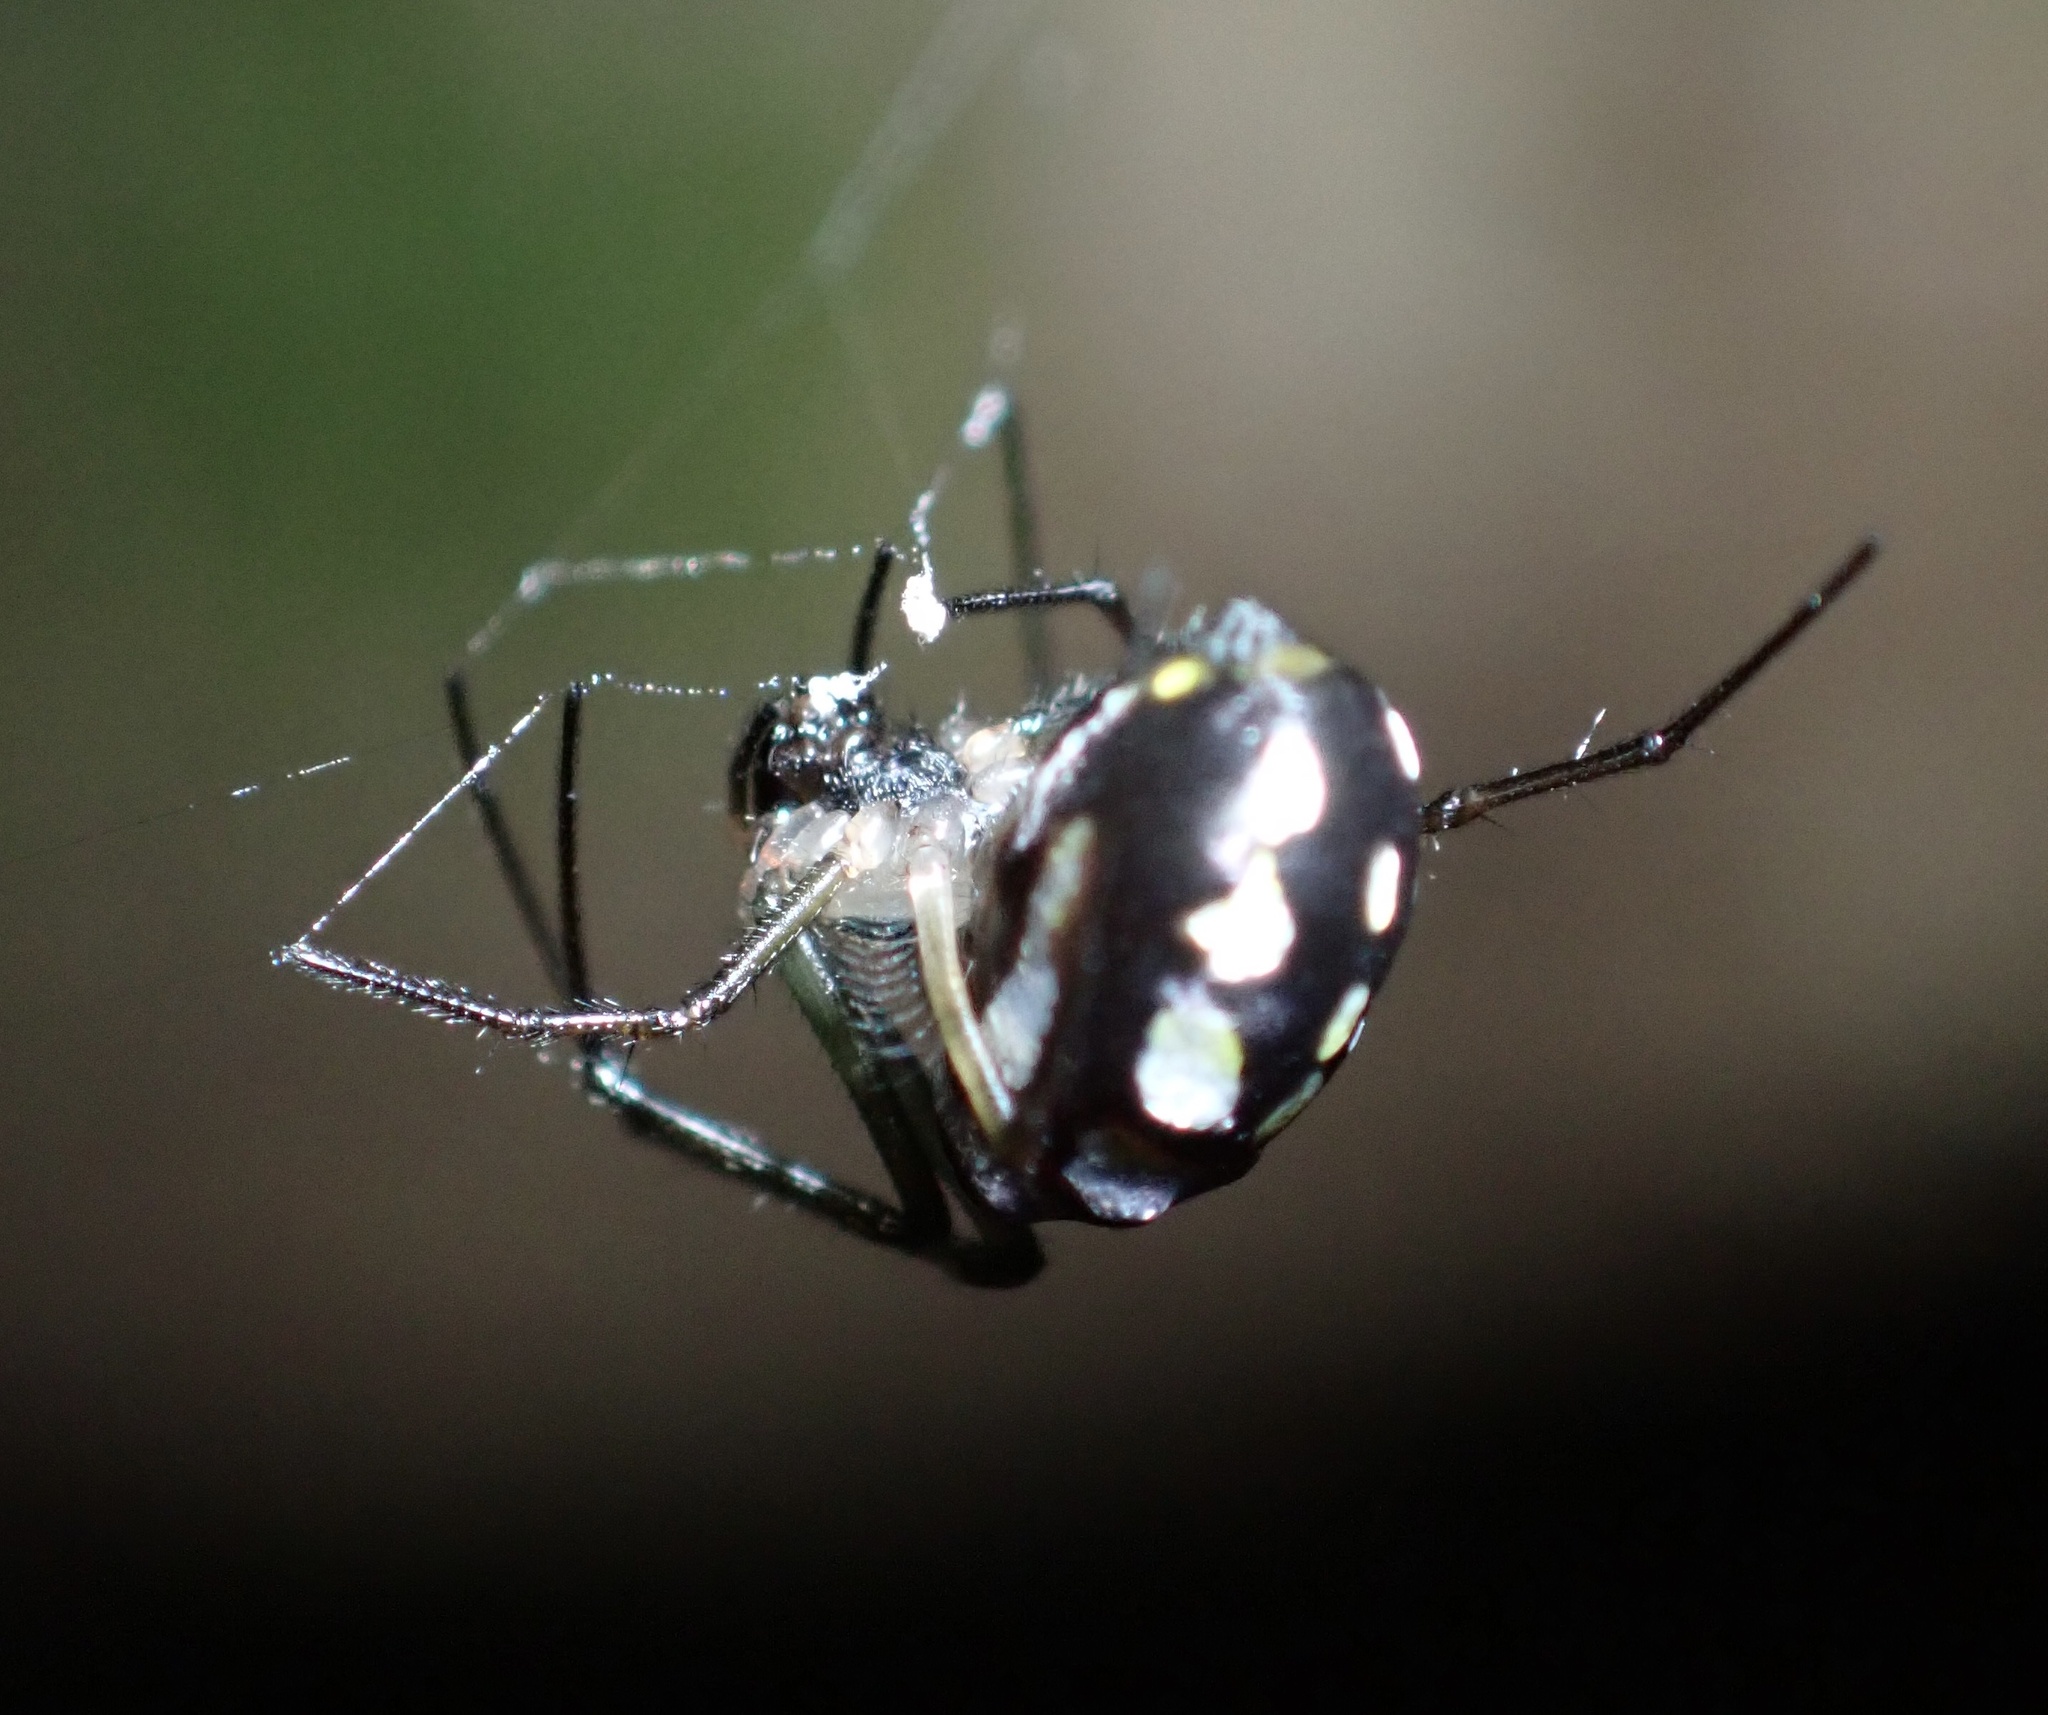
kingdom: Animalia
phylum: Arthropoda
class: Arachnida
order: Araneae
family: Tetragnathidae
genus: Leucauge
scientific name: Leucauge argentina
